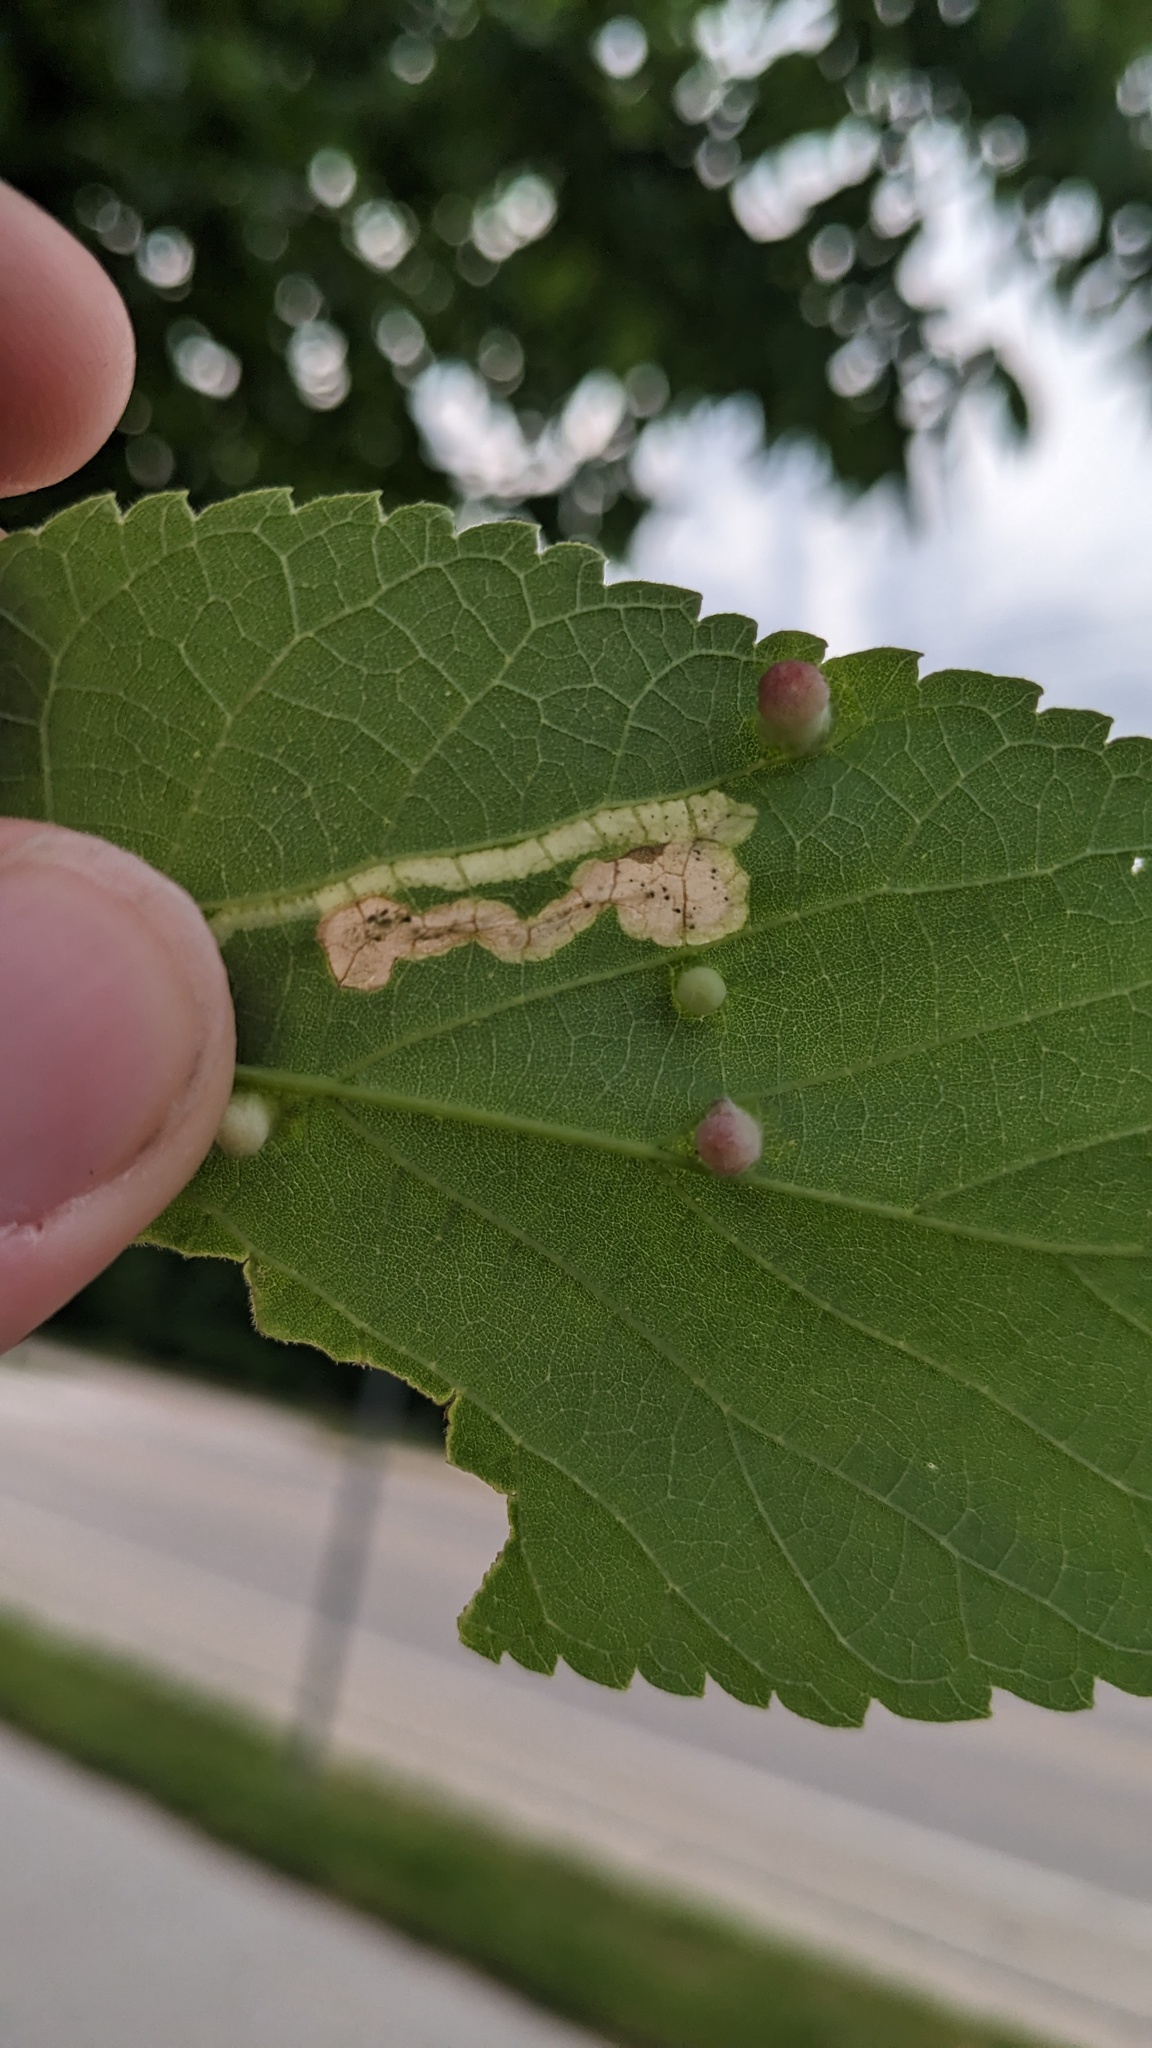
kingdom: Animalia
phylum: Arthropoda
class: Insecta
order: Diptera
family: Agromyzidae
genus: Agromyza
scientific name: Agromyza aristata
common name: Elm agromyzid leafminer
